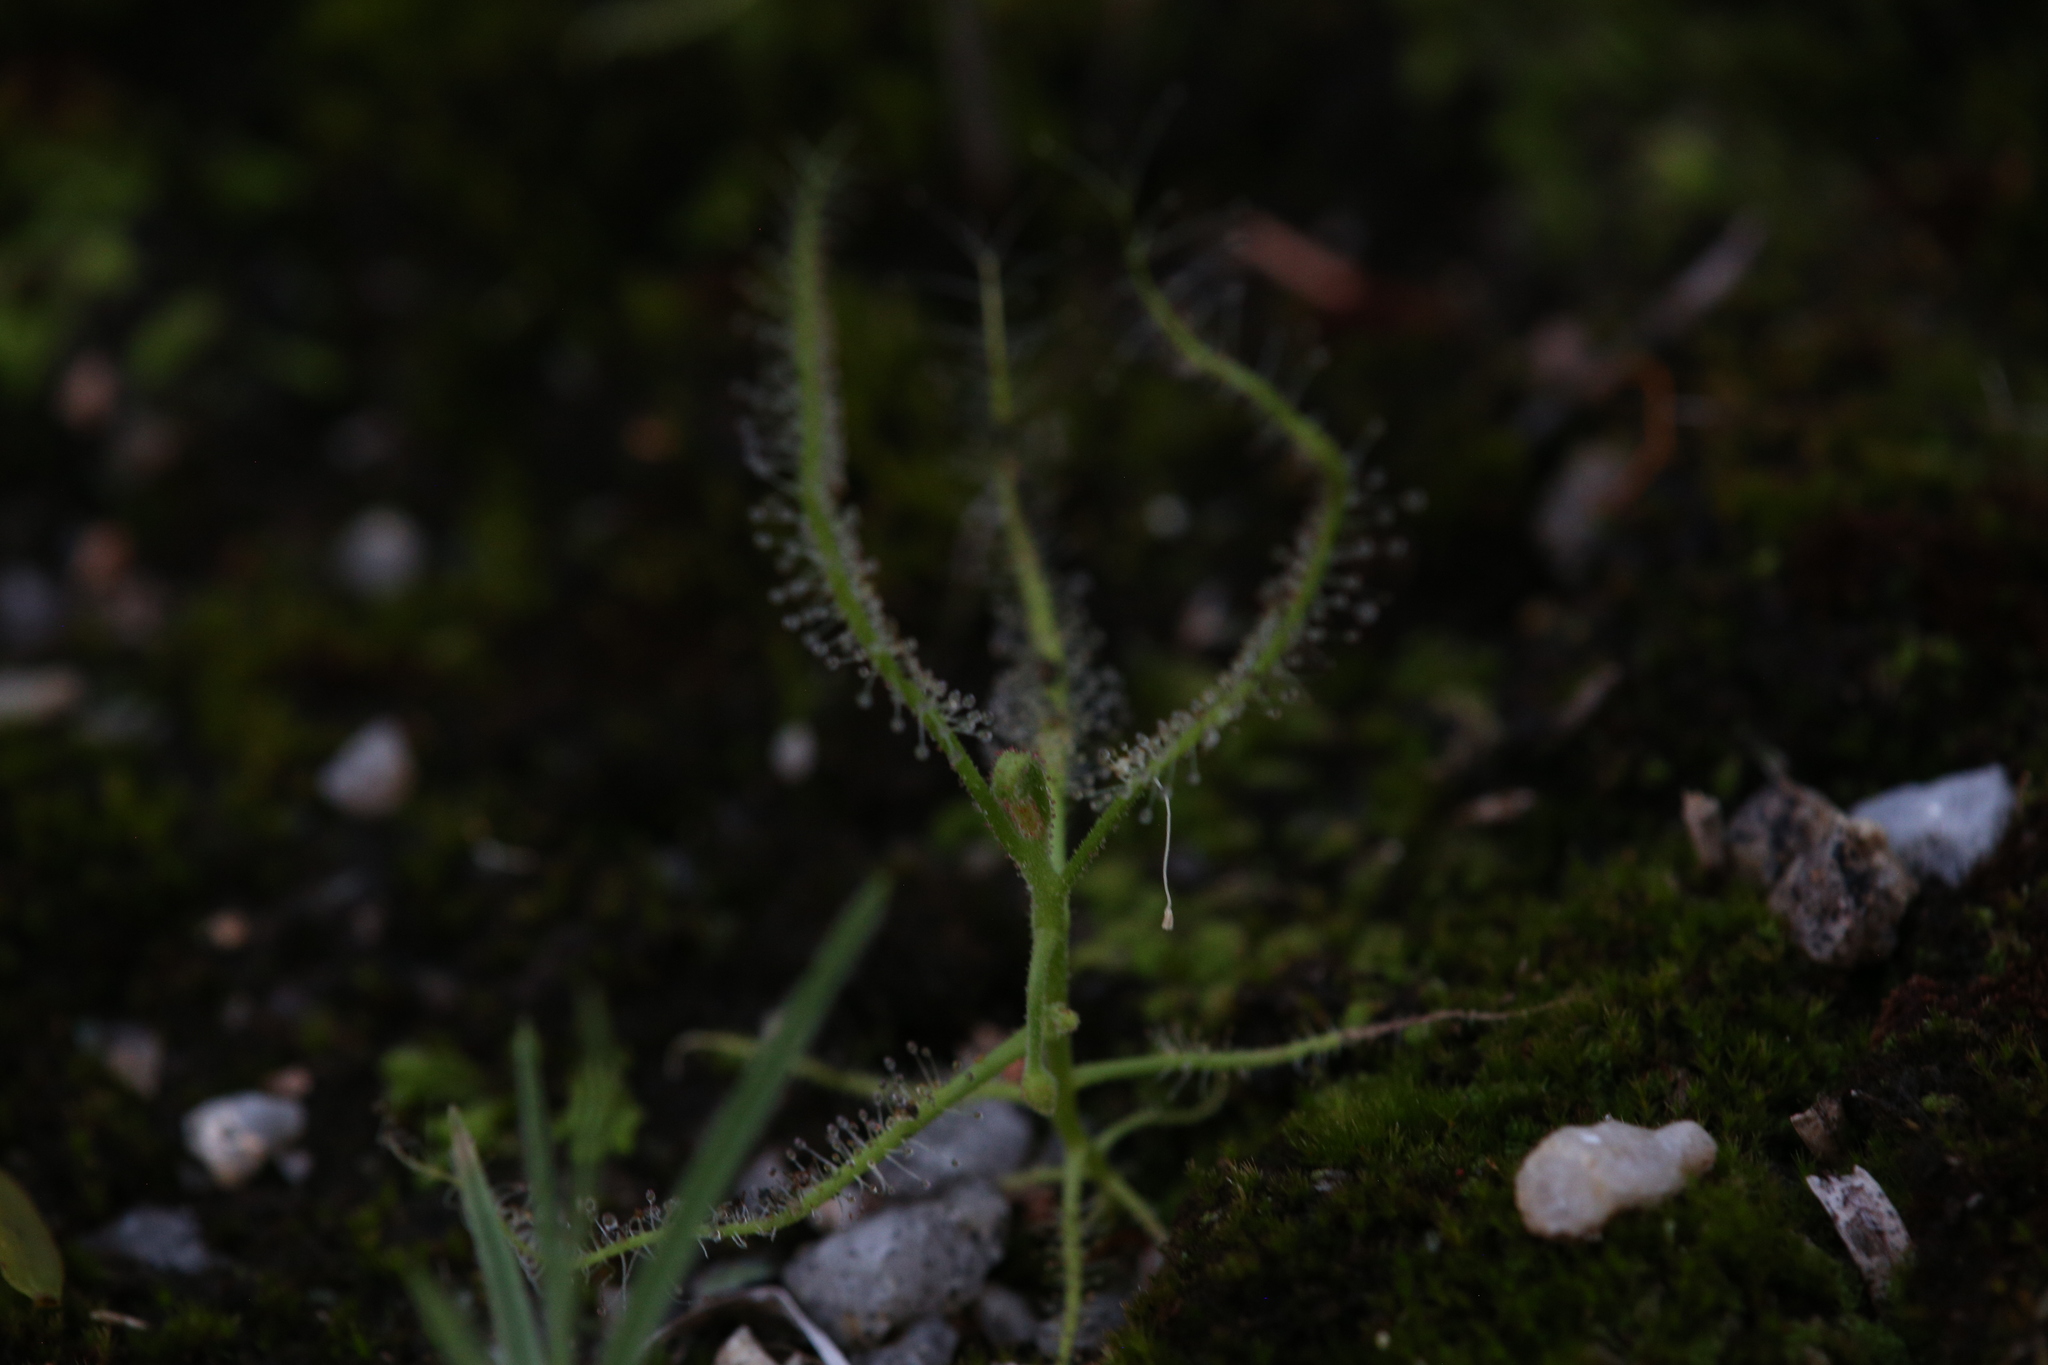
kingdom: Plantae
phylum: Tracheophyta
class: Magnoliopsida
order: Caryophyllales
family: Droseraceae
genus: Drosera
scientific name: Drosera indica
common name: Indian sundew
